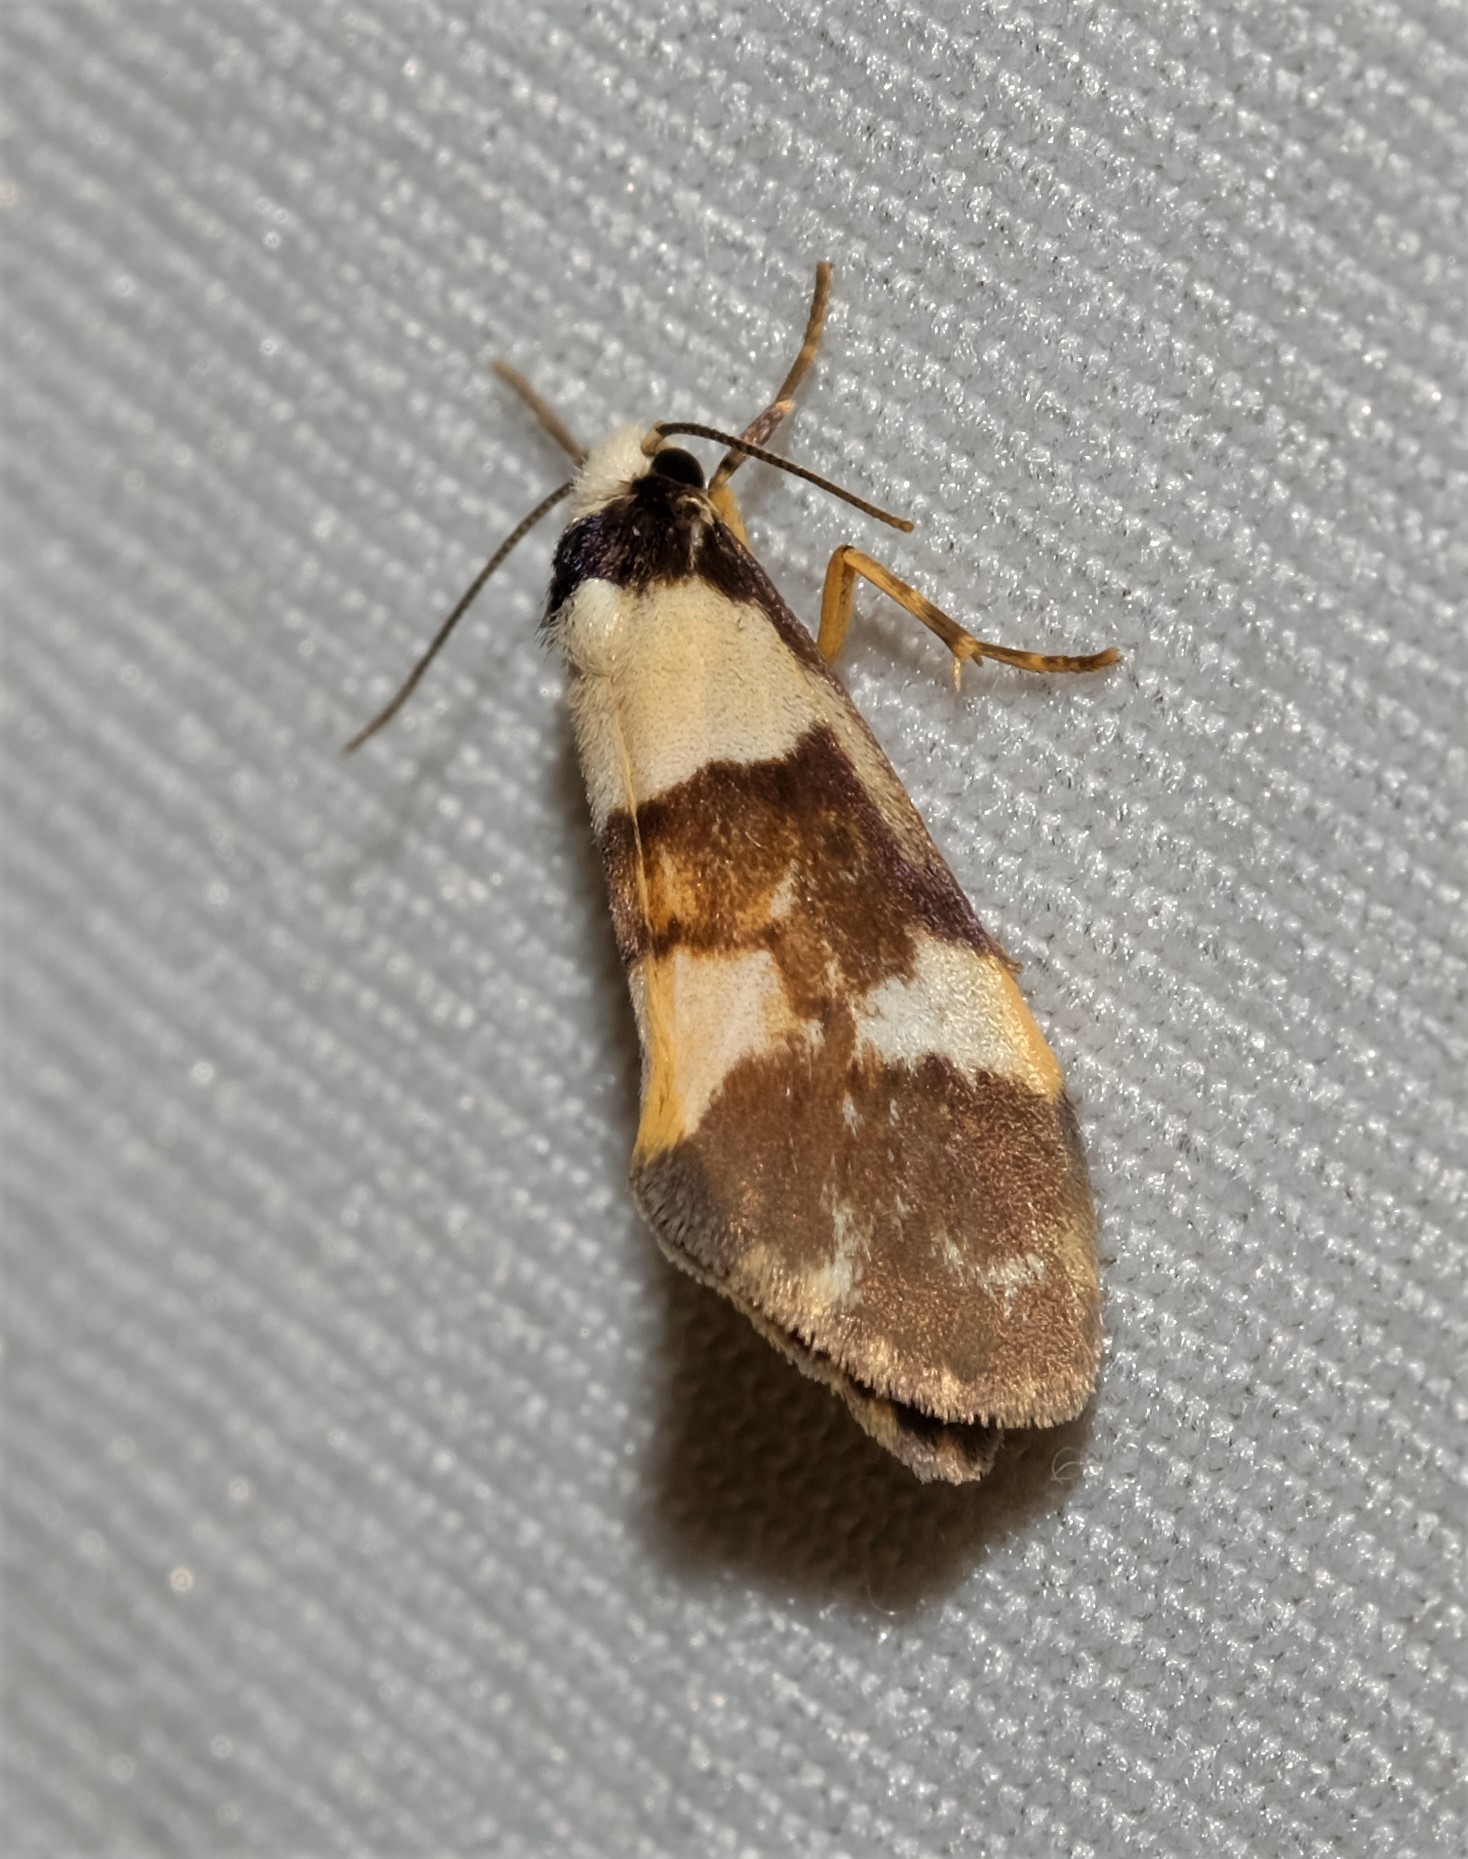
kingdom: Animalia
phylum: Arthropoda
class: Insecta
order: Lepidoptera
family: Erebidae
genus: Philenora
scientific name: Philenora aspectalella
